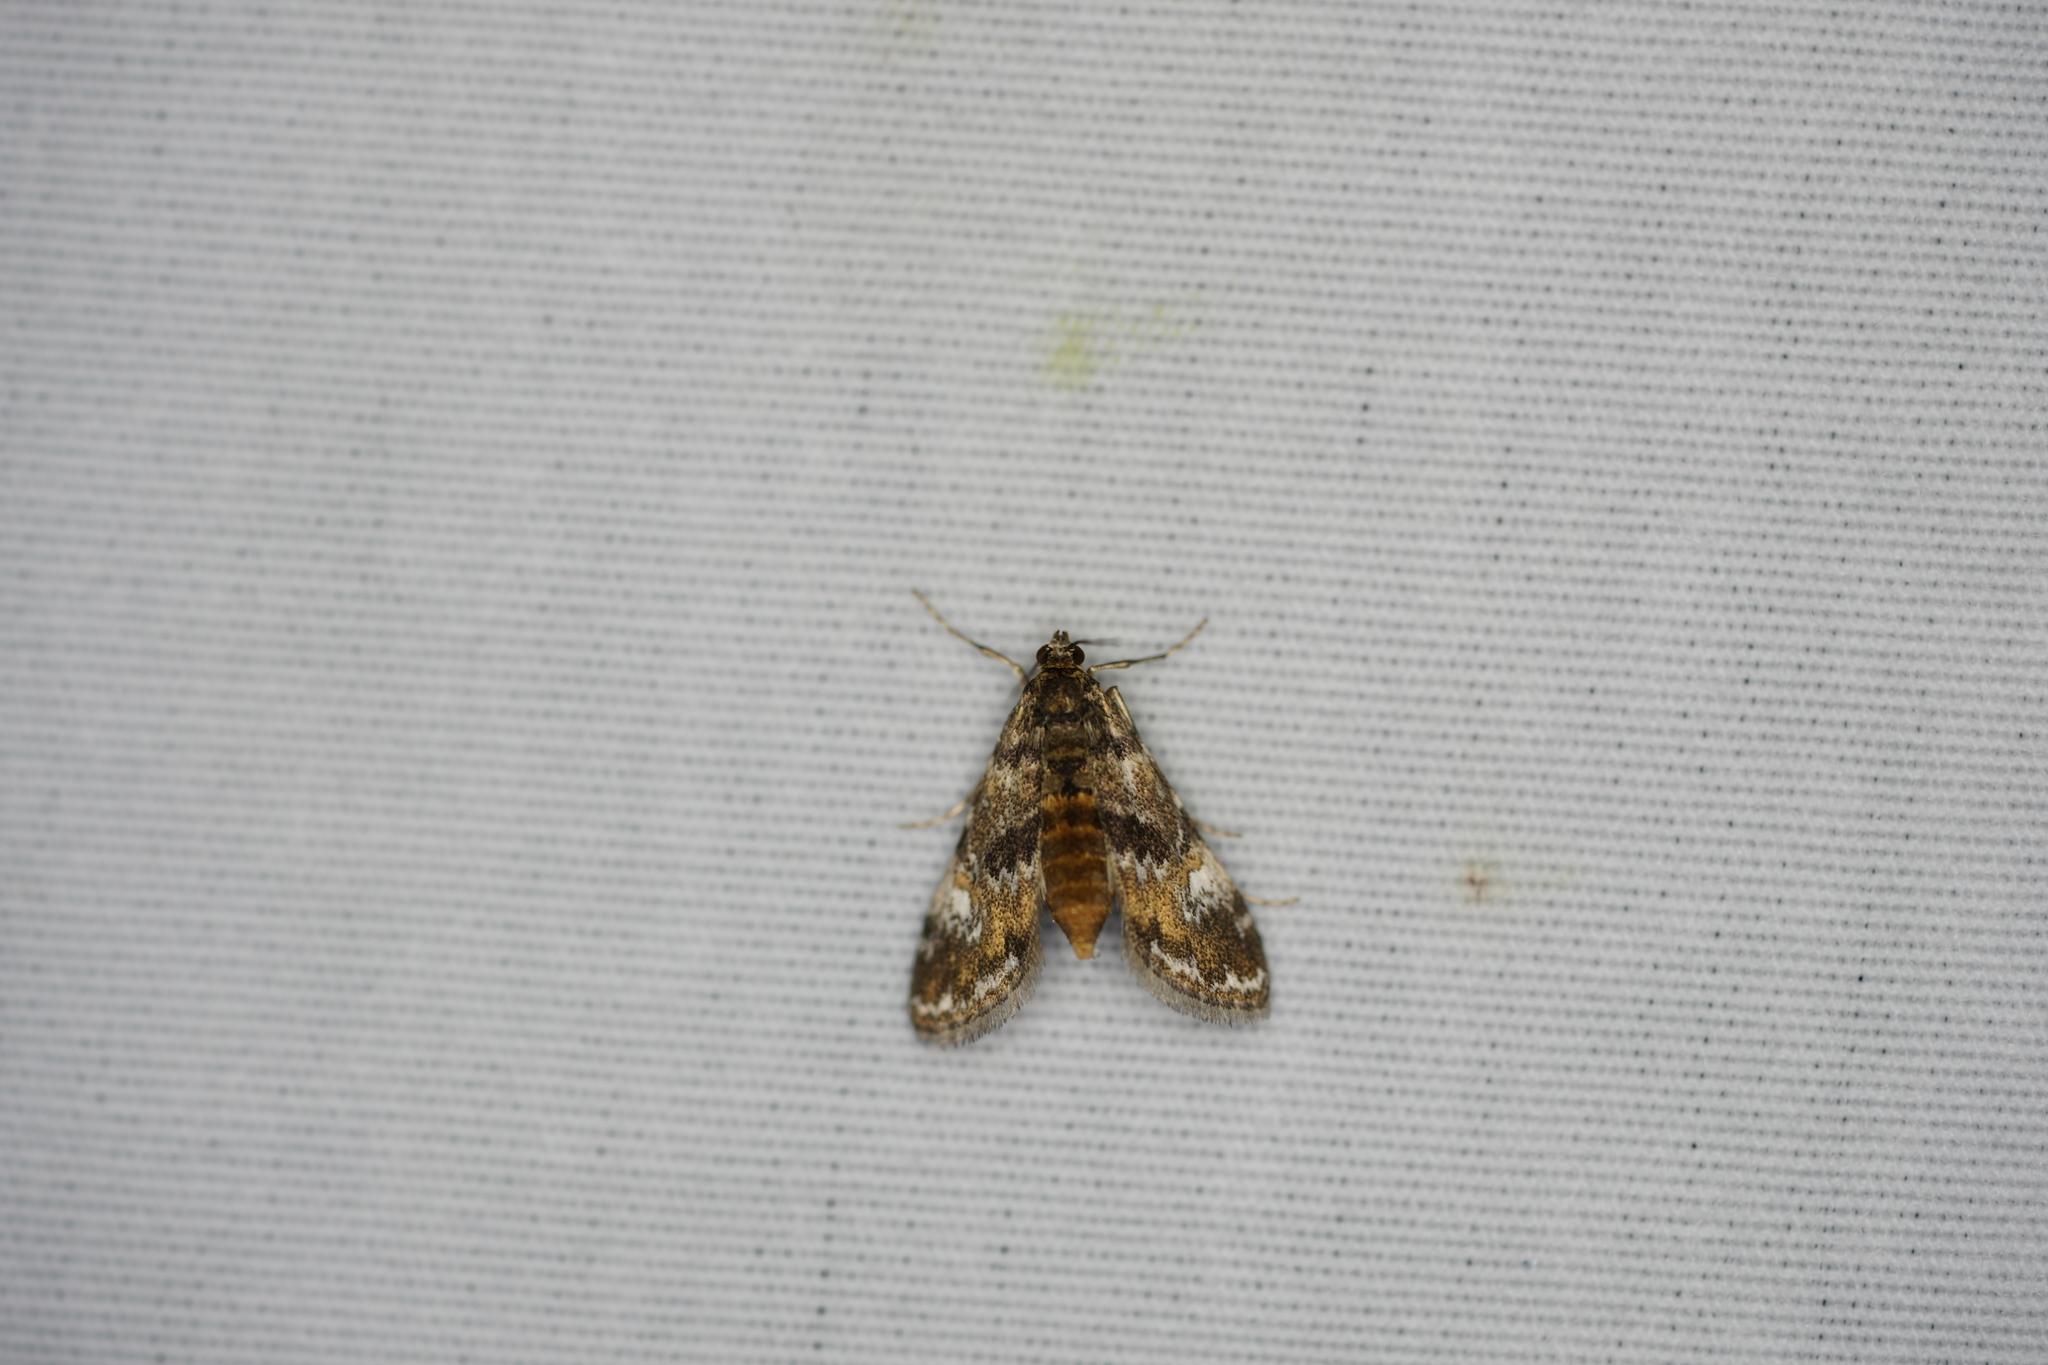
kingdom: Animalia
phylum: Arthropoda
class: Insecta
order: Lepidoptera
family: Crambidae
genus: Elophila
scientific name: Elophila obliteralis
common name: Waterlily leafcutter moth
